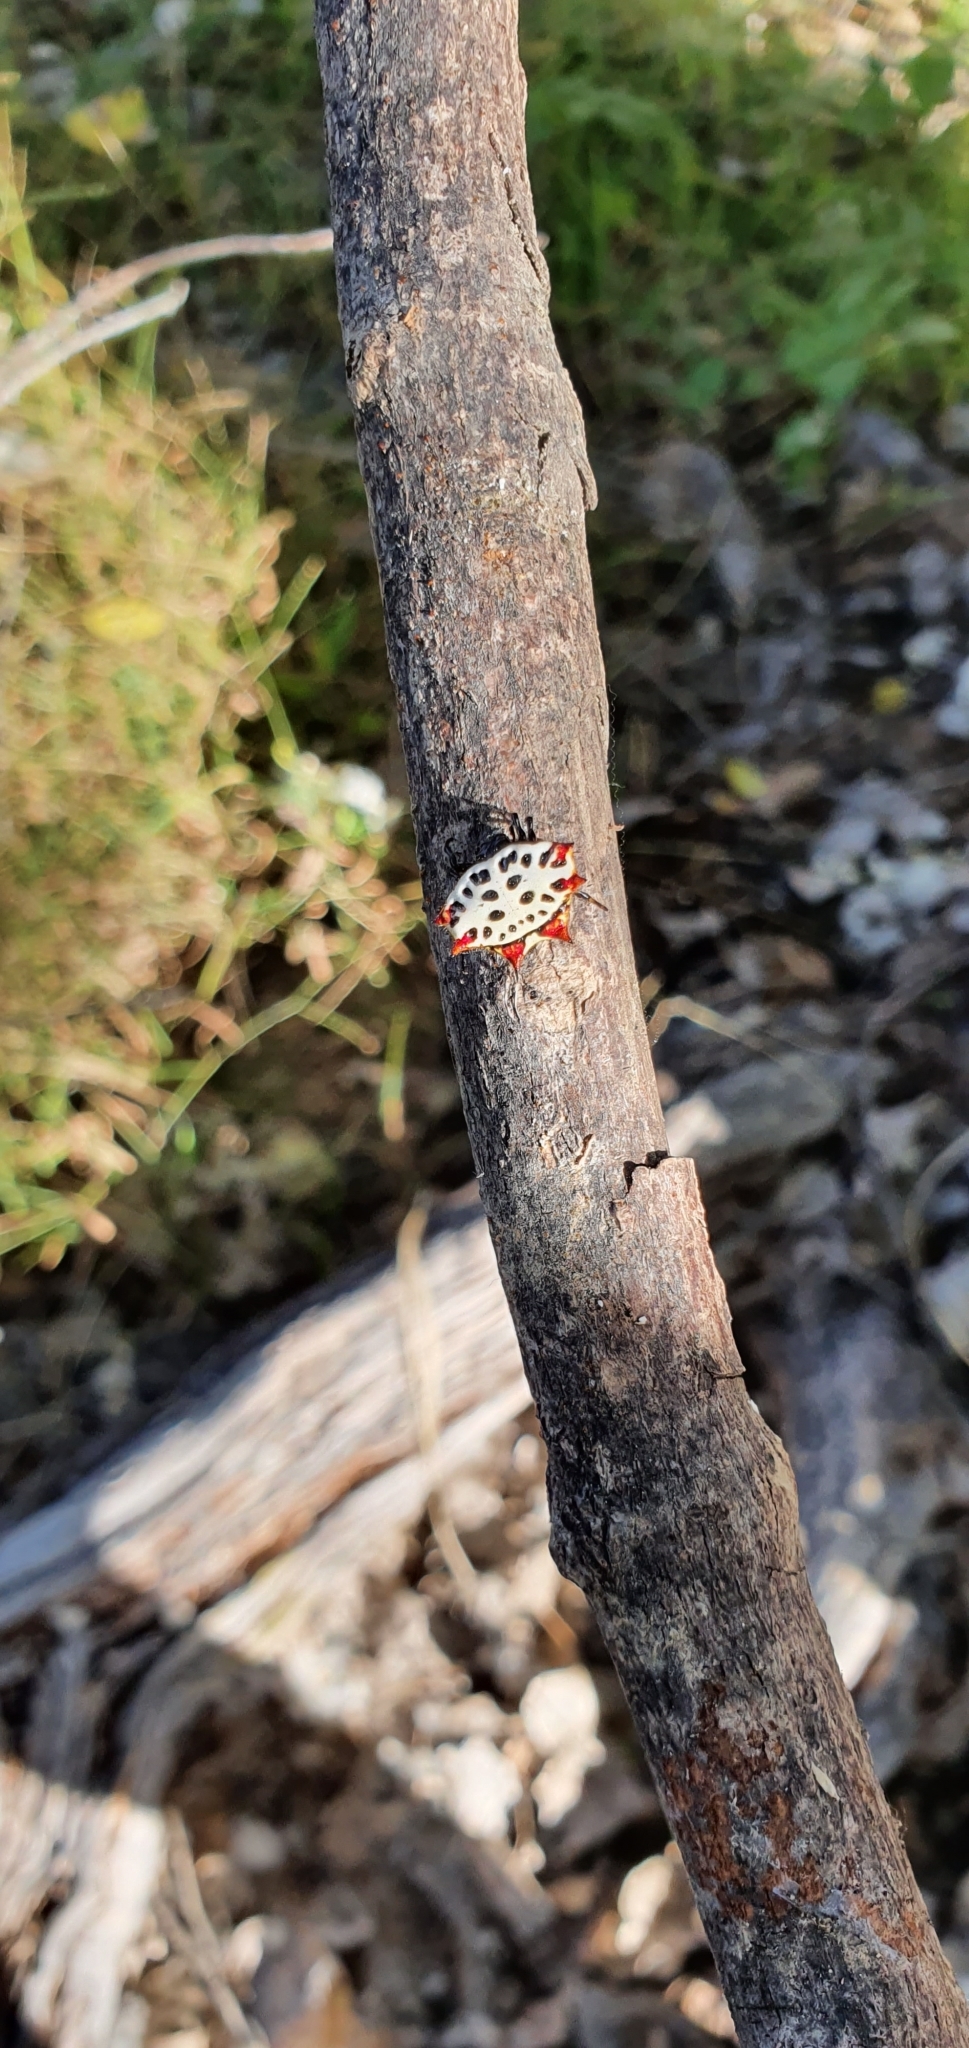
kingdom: Animalia
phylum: Arthropoda
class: Arachnida
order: Araneae
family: Araneidae
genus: Gasteracantha
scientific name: Gasteracantha cancriformis
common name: Orb weavers
